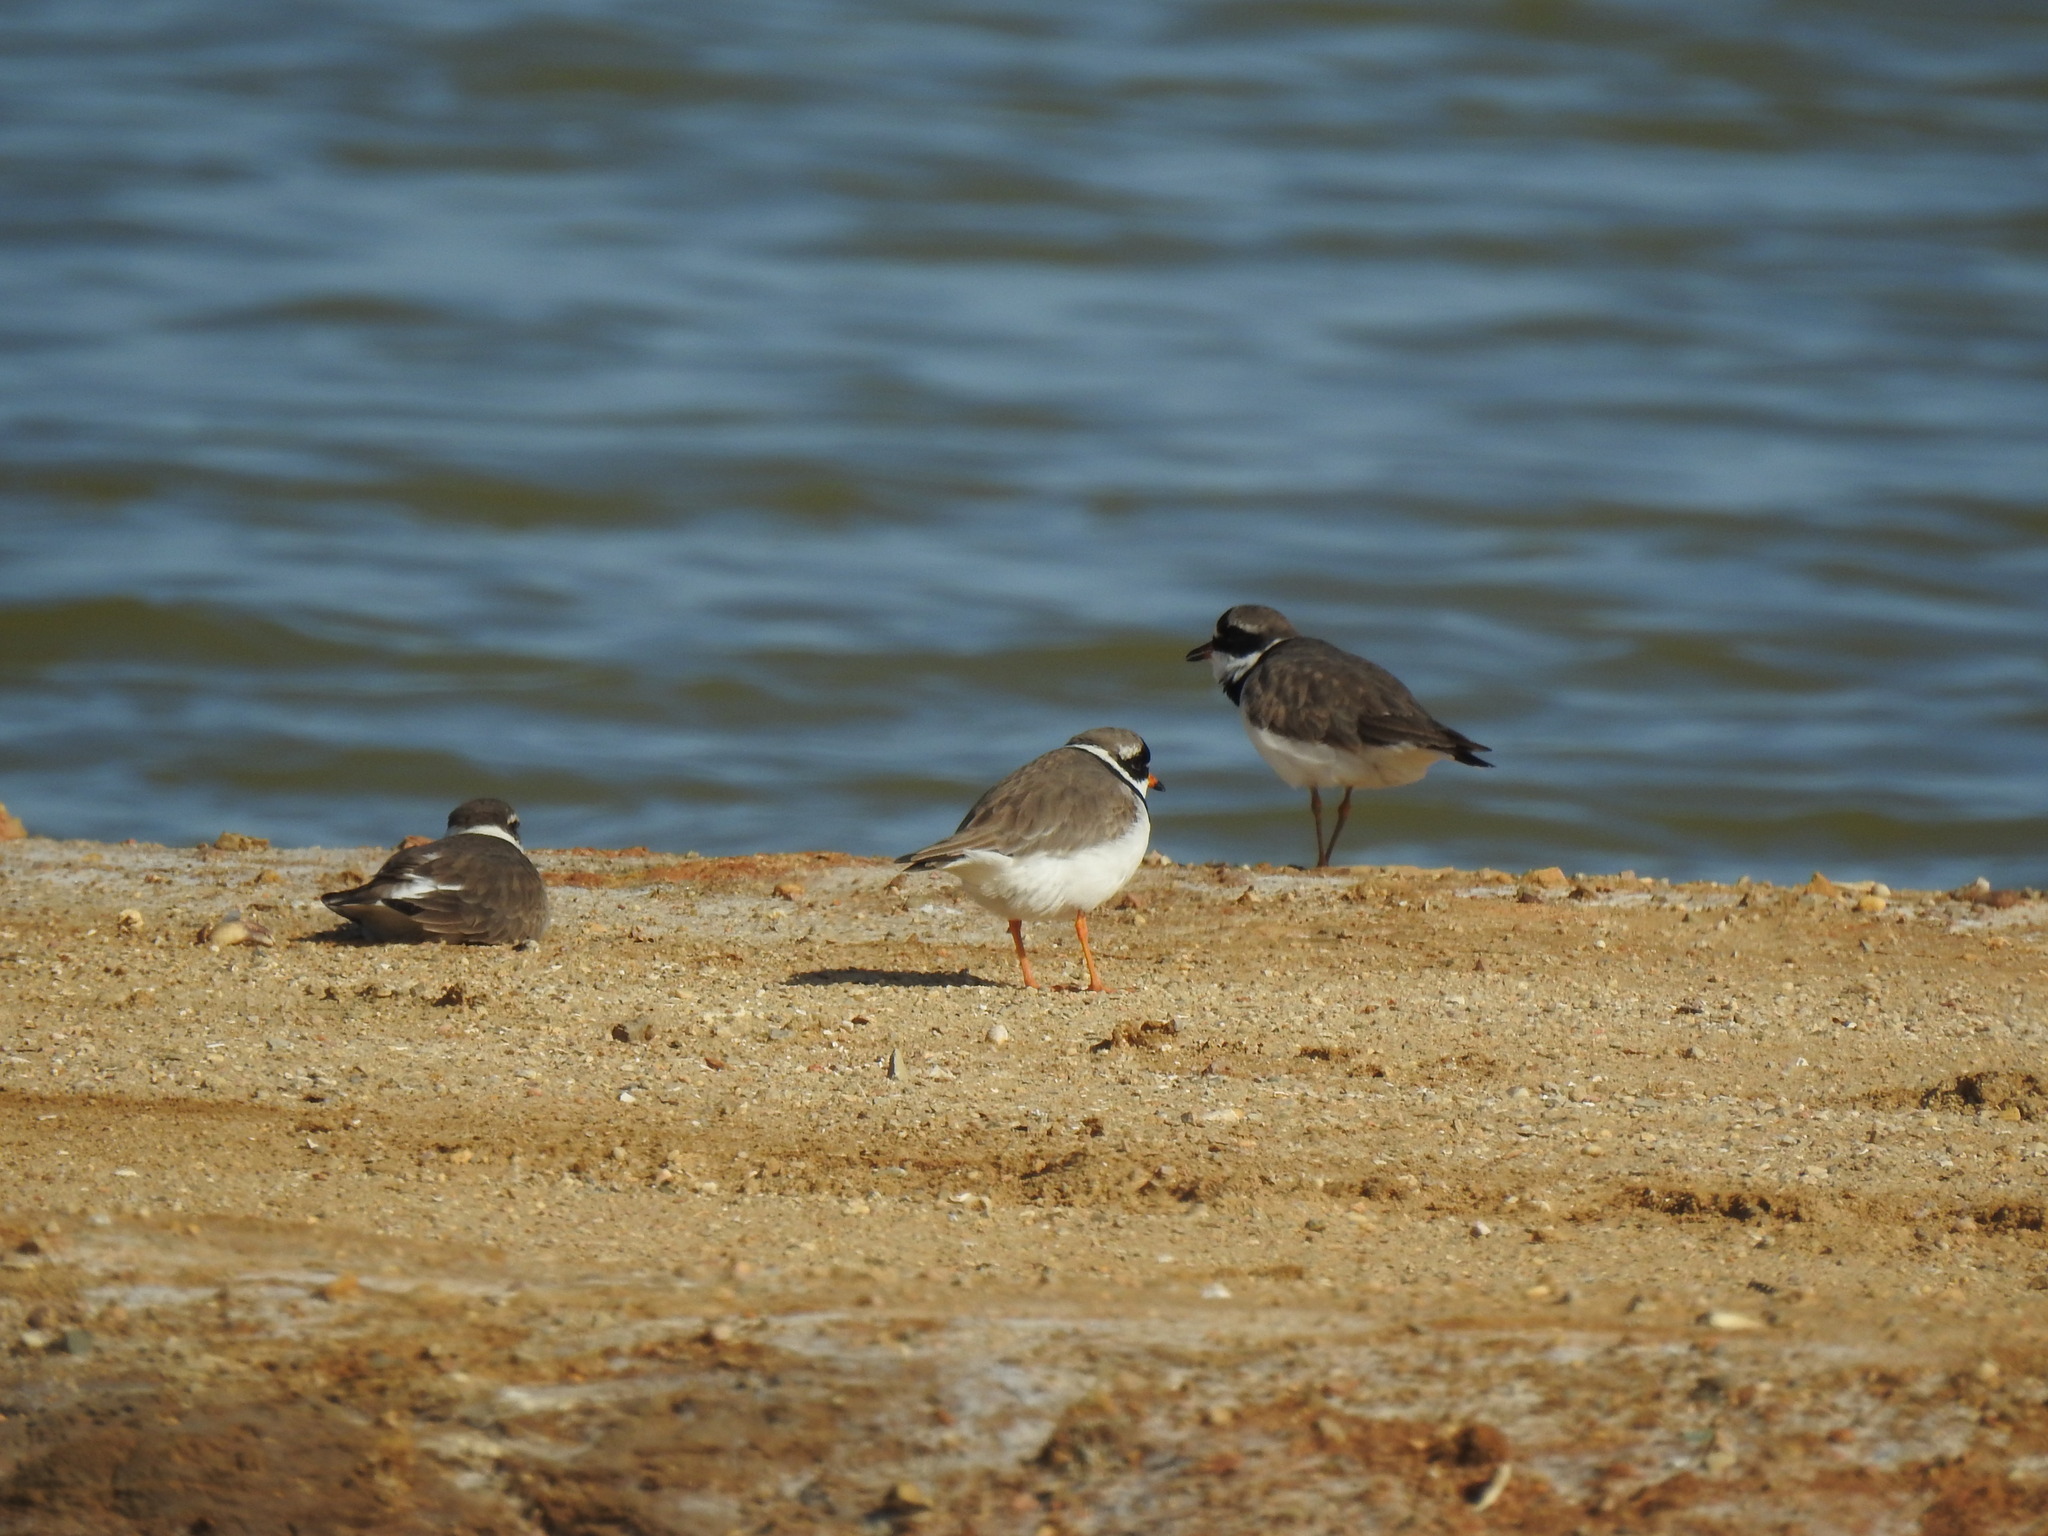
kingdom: Animalia
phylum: Chordata
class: Aves
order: Charadriiformes
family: Charadriidae
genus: Charadrius
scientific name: Charadrius hiaticula
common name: Common ringed plover
